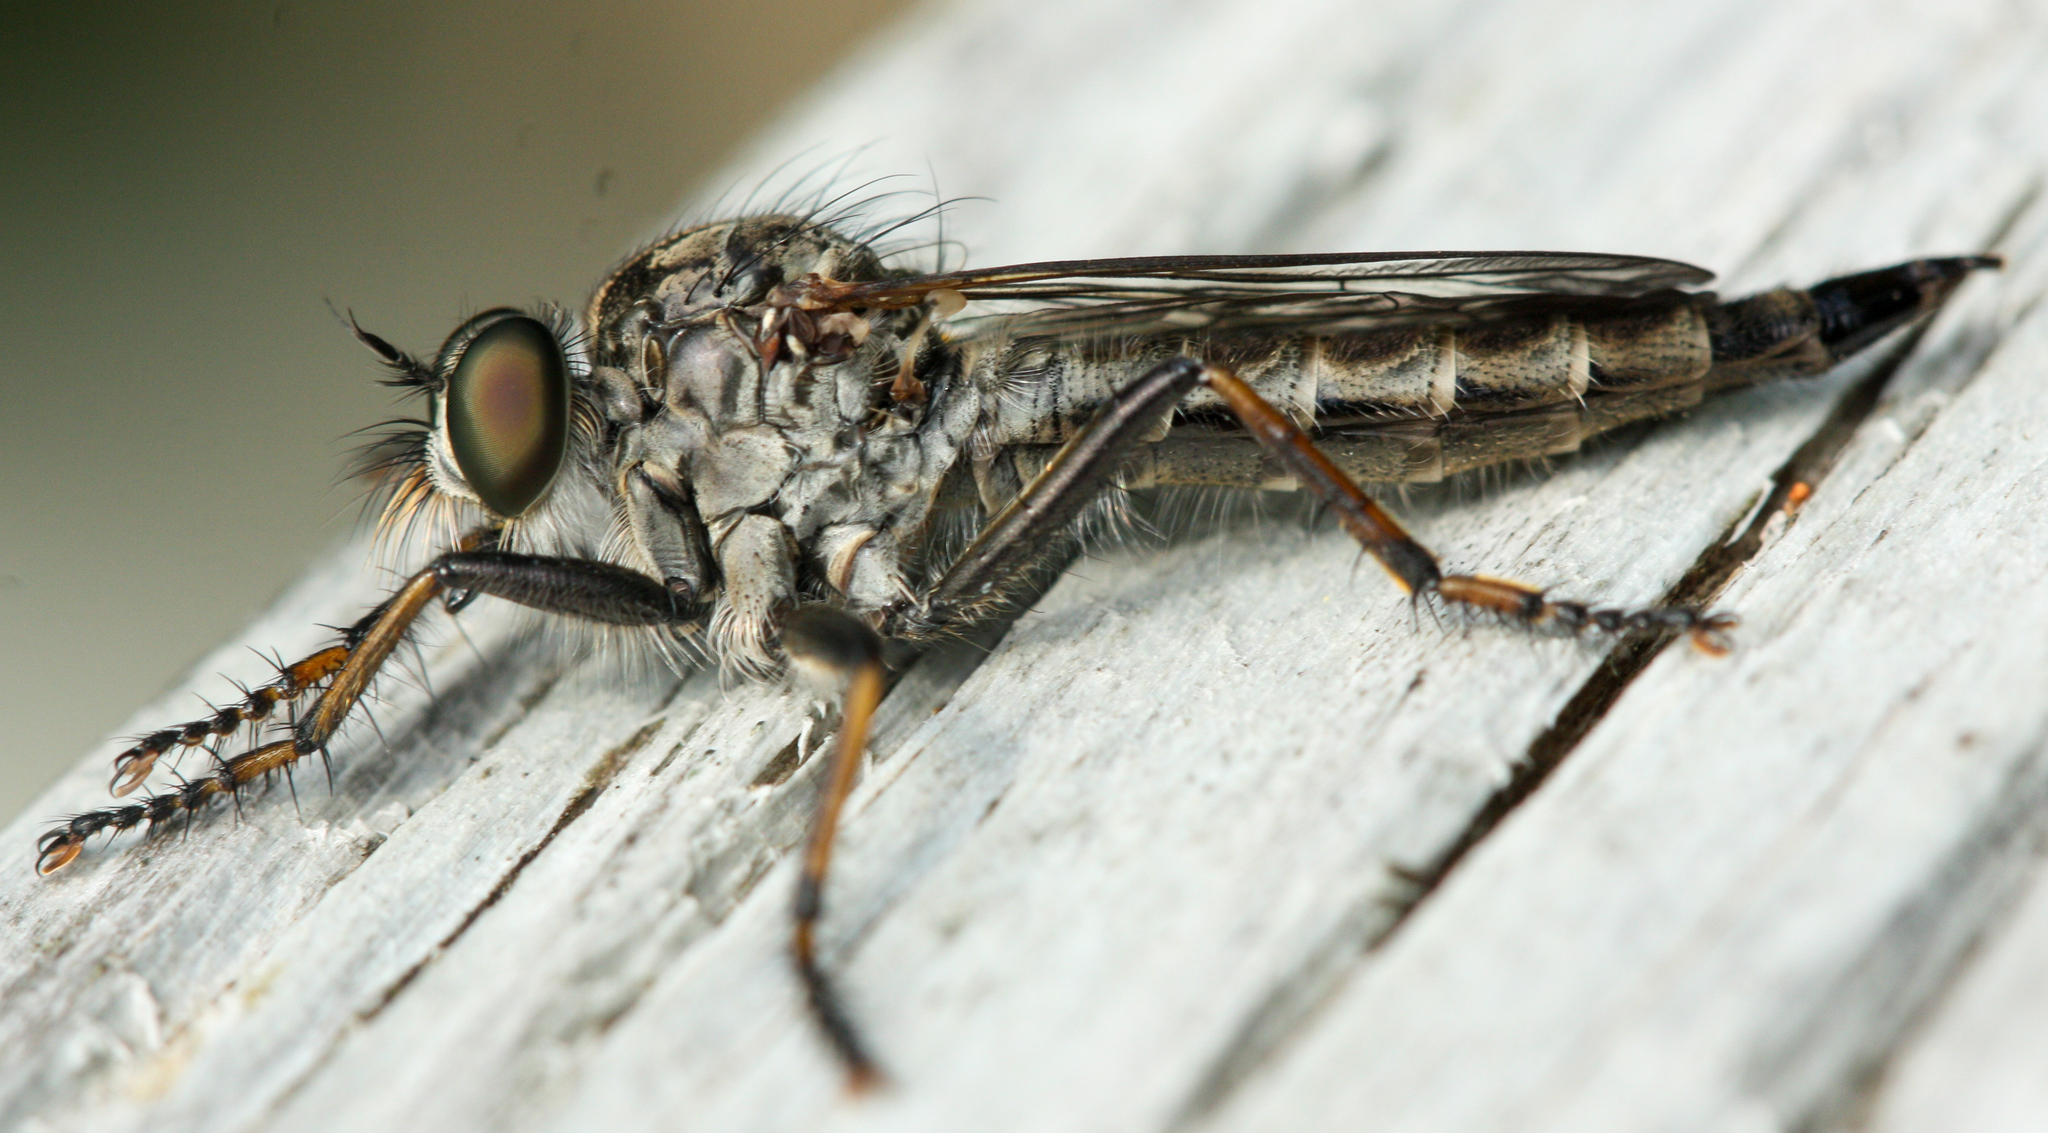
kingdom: Animalia
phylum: Arthropoda
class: Insecta
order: Diptera
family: Asilidae
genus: Machimus
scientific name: Machimus sadyates
